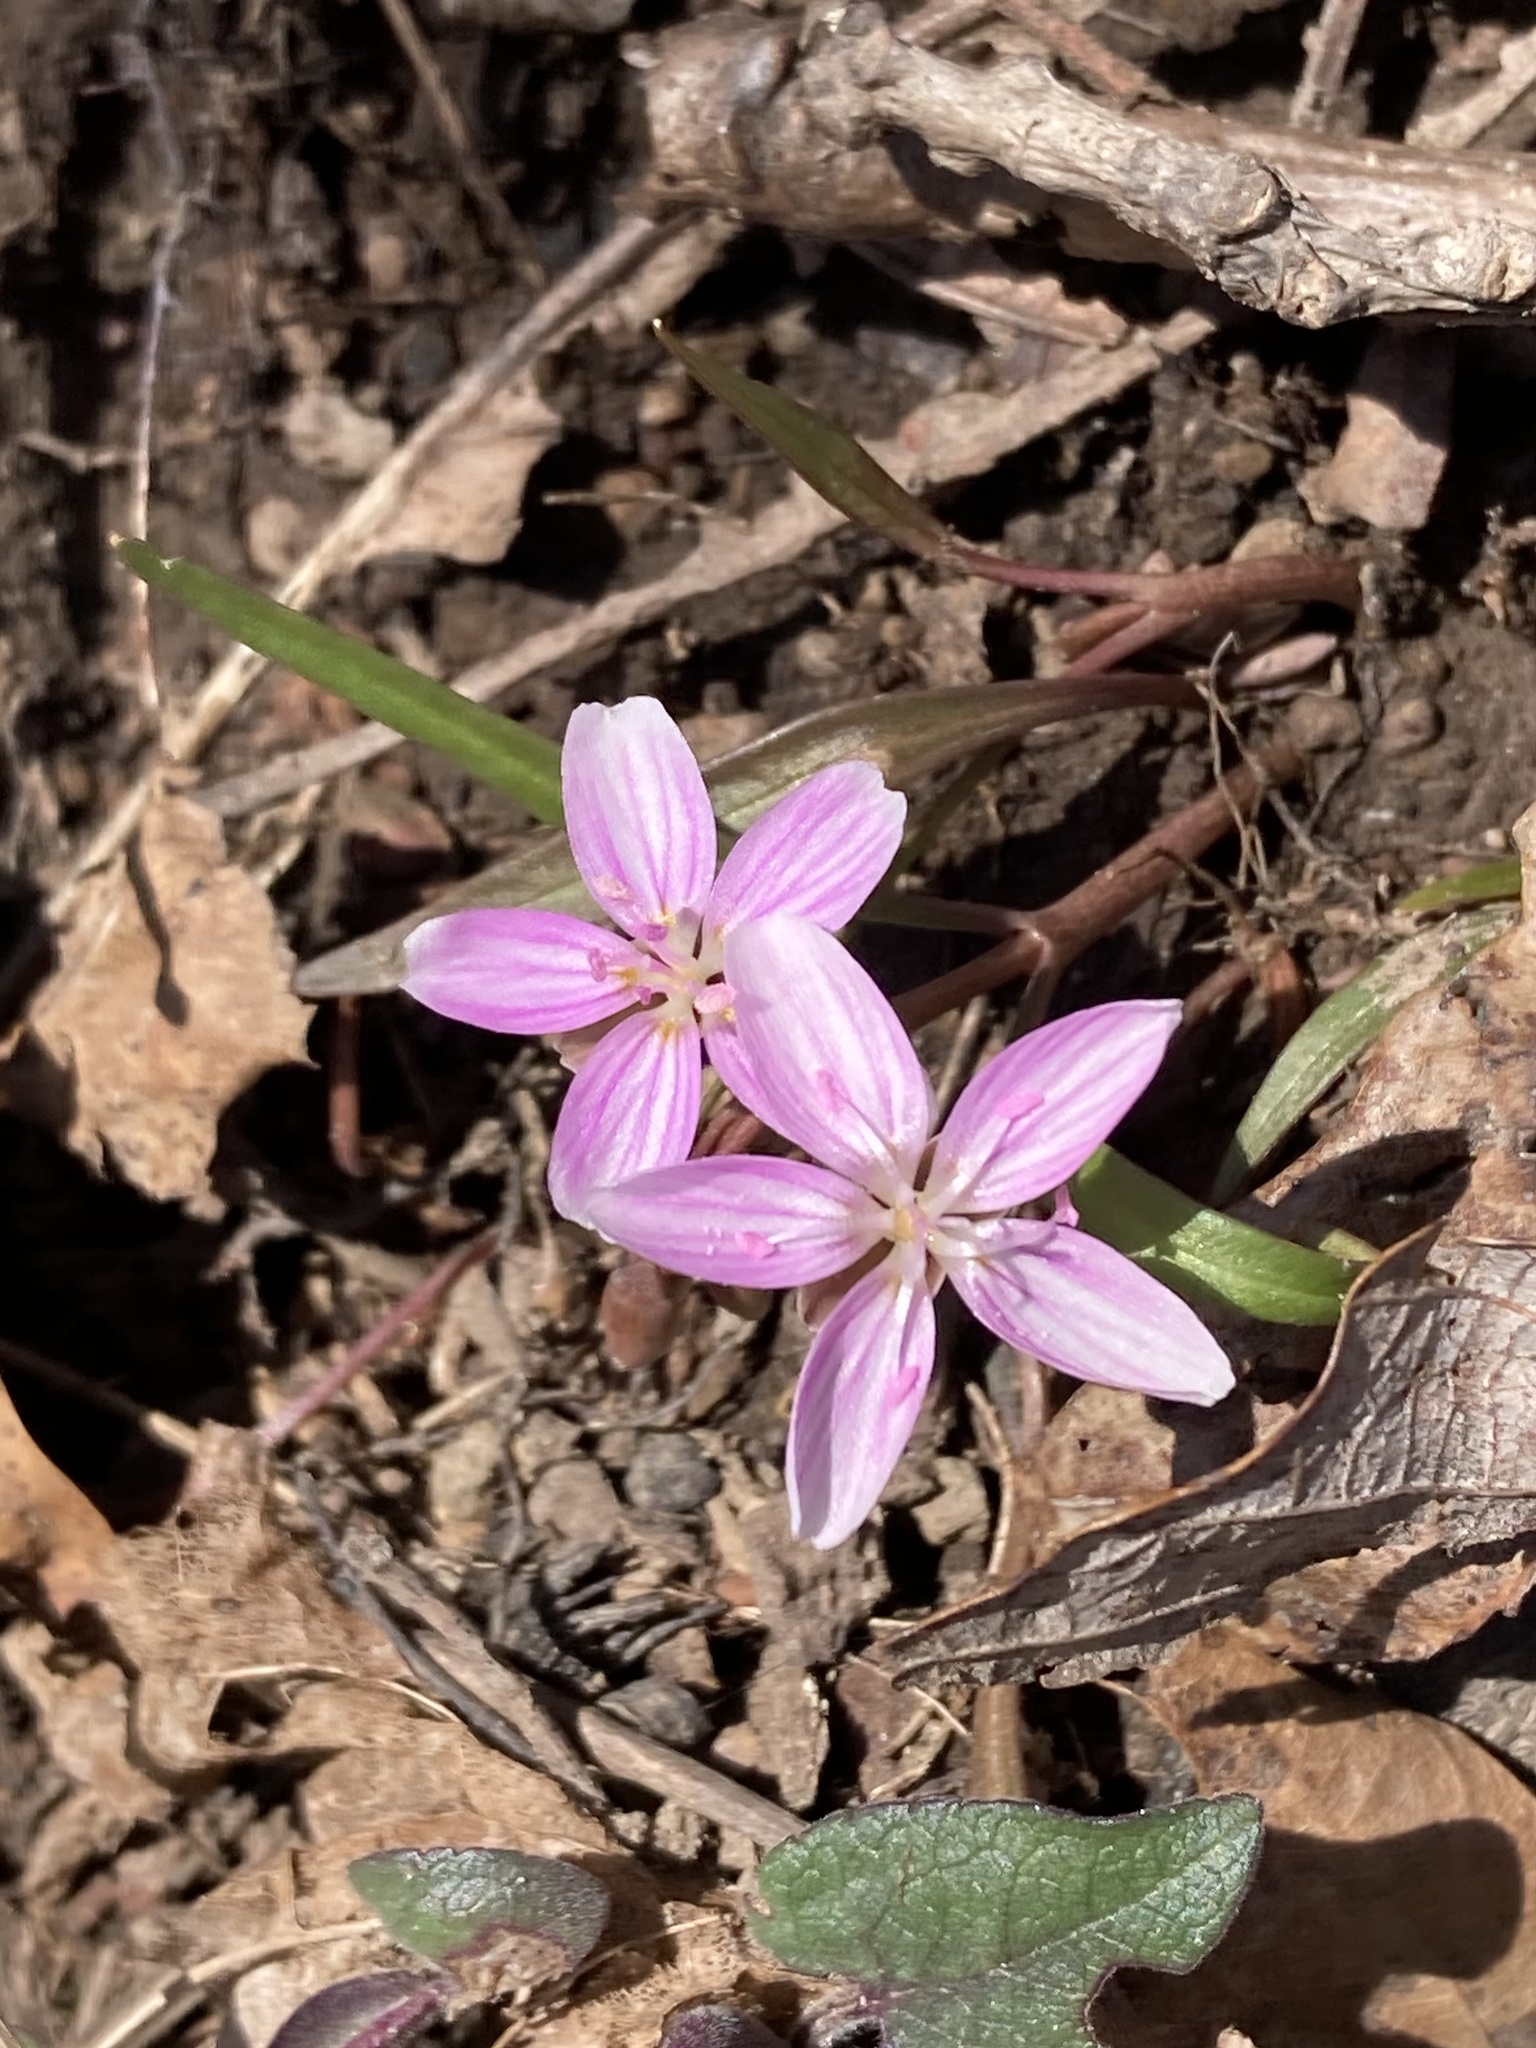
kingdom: Plantae
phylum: Tracheophyta
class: Magnoliopsida
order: Caryophyllales
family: Montiaceae
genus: Claytonia
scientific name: Claytonia virginica
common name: Virginia springbeauty
